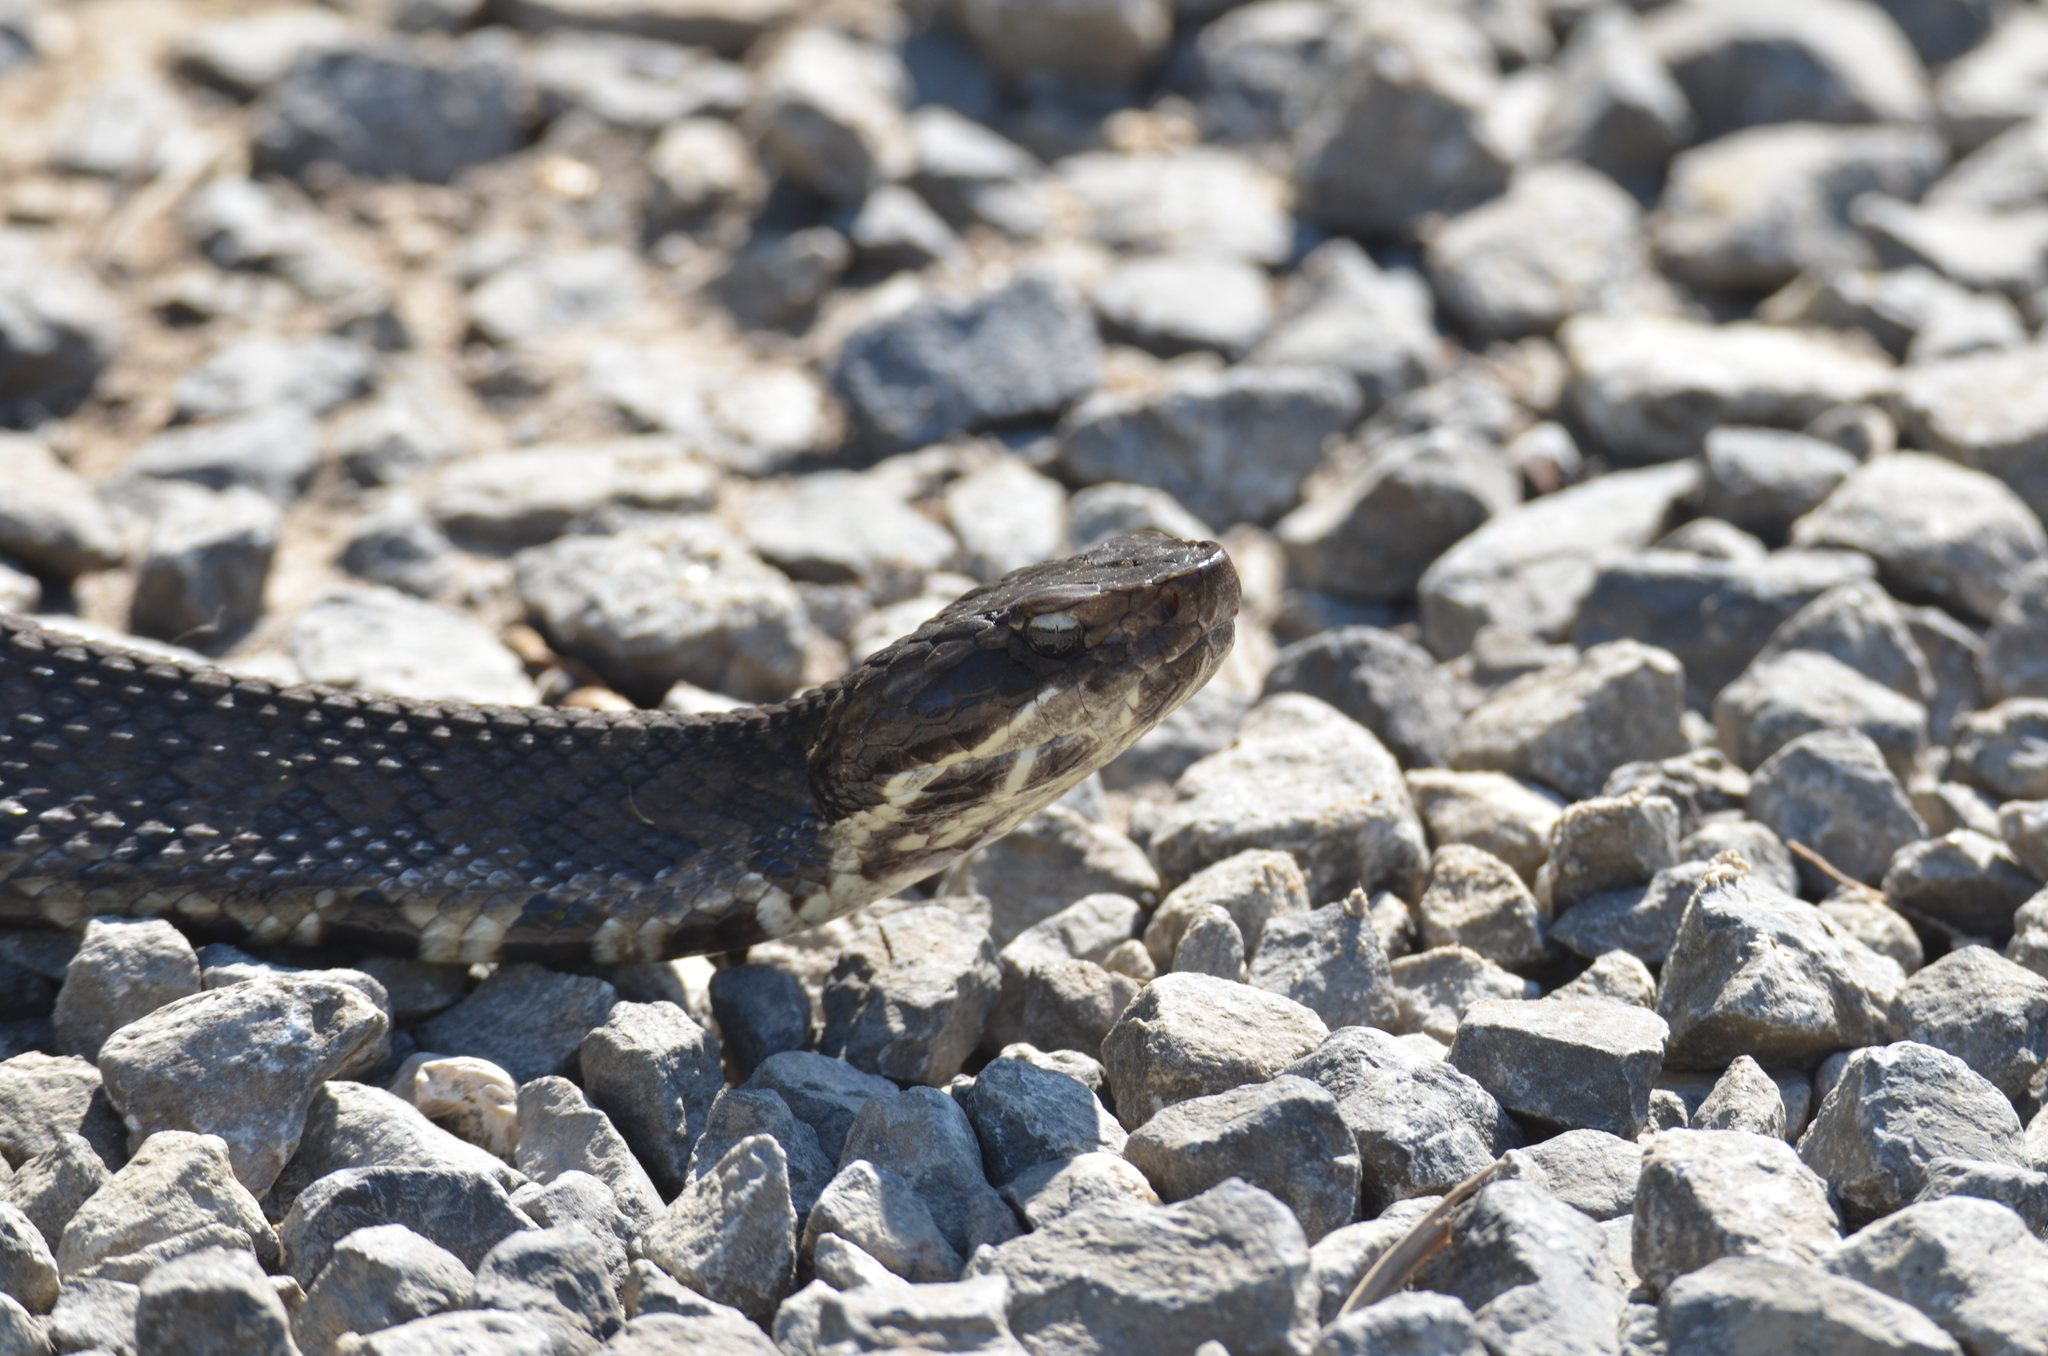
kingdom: Animalia
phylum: Chordata
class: Squamata
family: Viperidae
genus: Agkistrodon
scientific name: Agkistrodon piscivorus
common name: Cottonmouth
